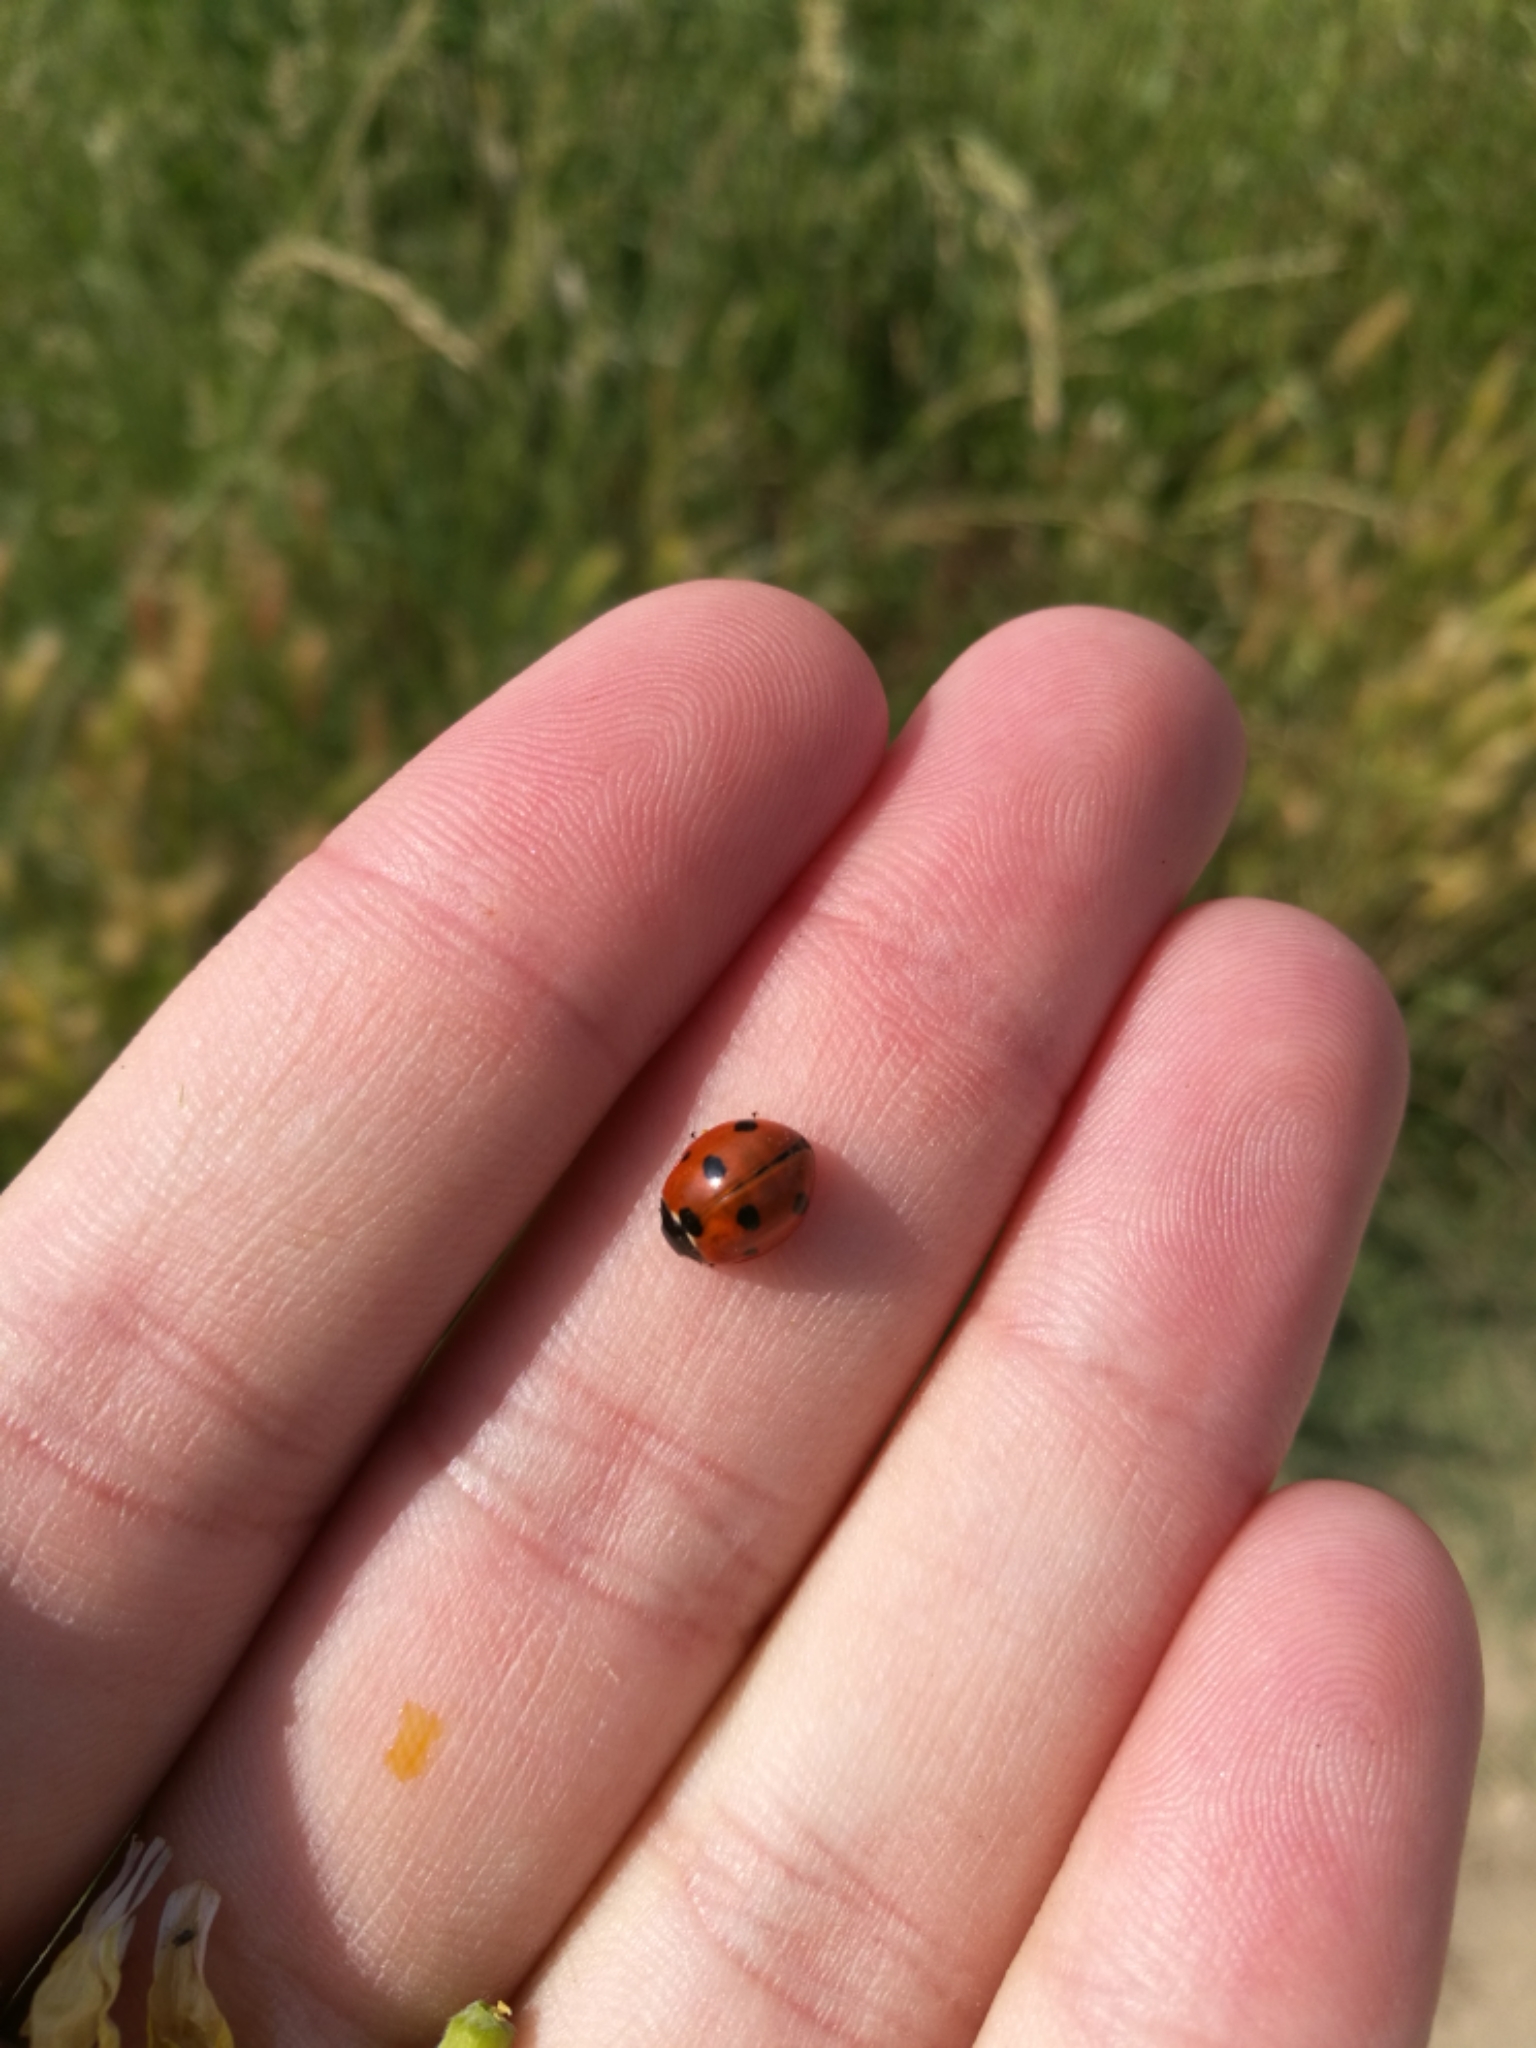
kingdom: Animalia
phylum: Arthropoda
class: Insecta
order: Coleoptera
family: Coccinellidae
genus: Coccinella
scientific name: Coccinella septempunctata
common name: Sevenspotted lady beetle
